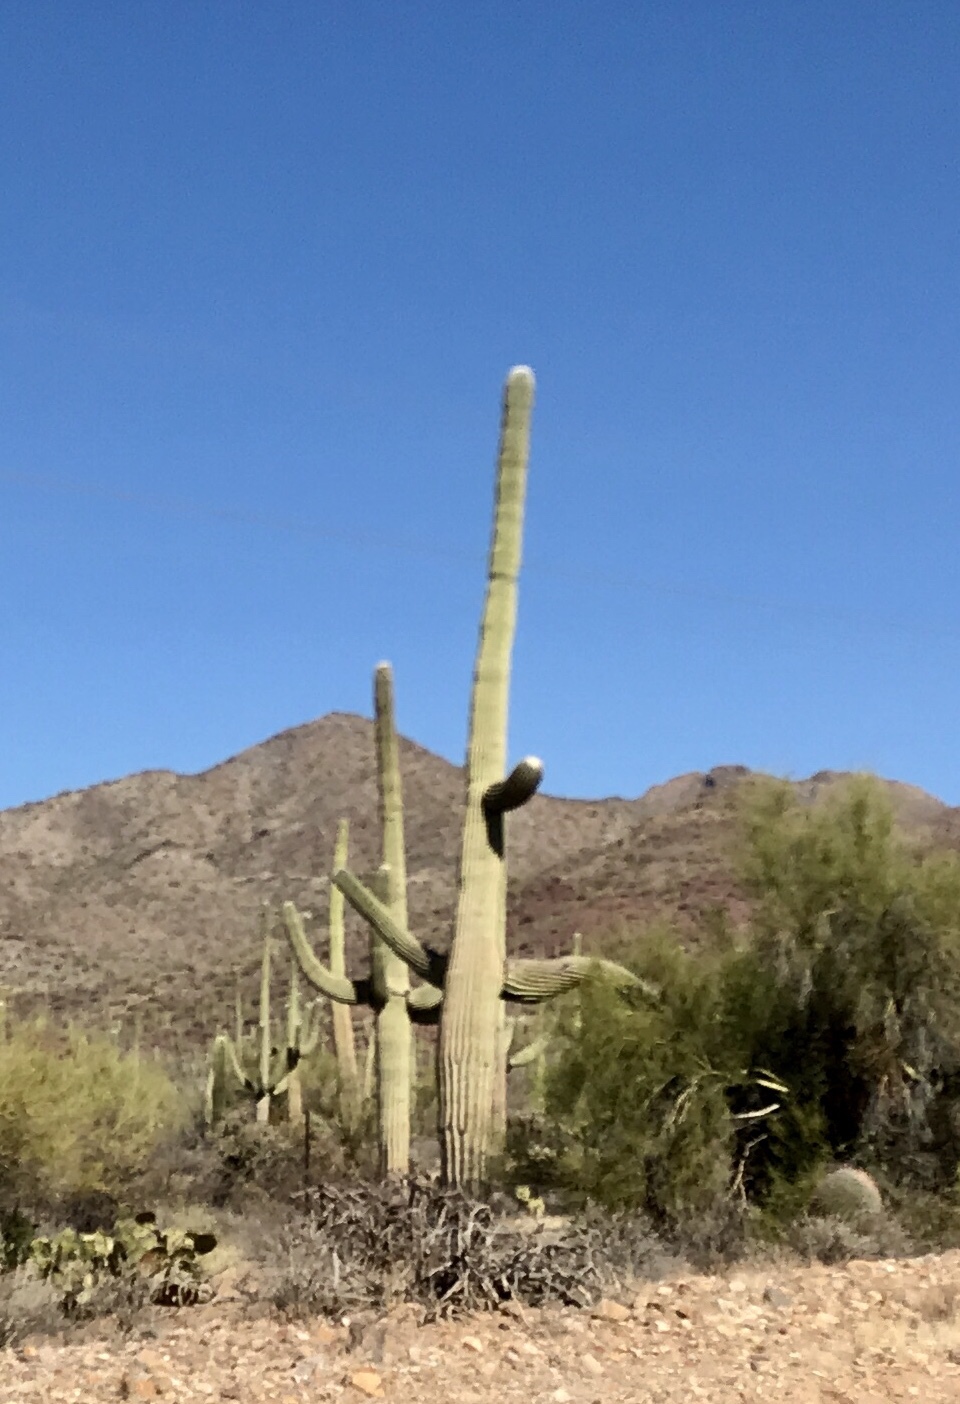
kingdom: Plantae
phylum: Tracheophyta
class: Magnoliopsida
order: Caryophyllales
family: Cactaceae
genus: Carnegiea
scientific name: Carnegiea gigantea
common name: Saguaro
